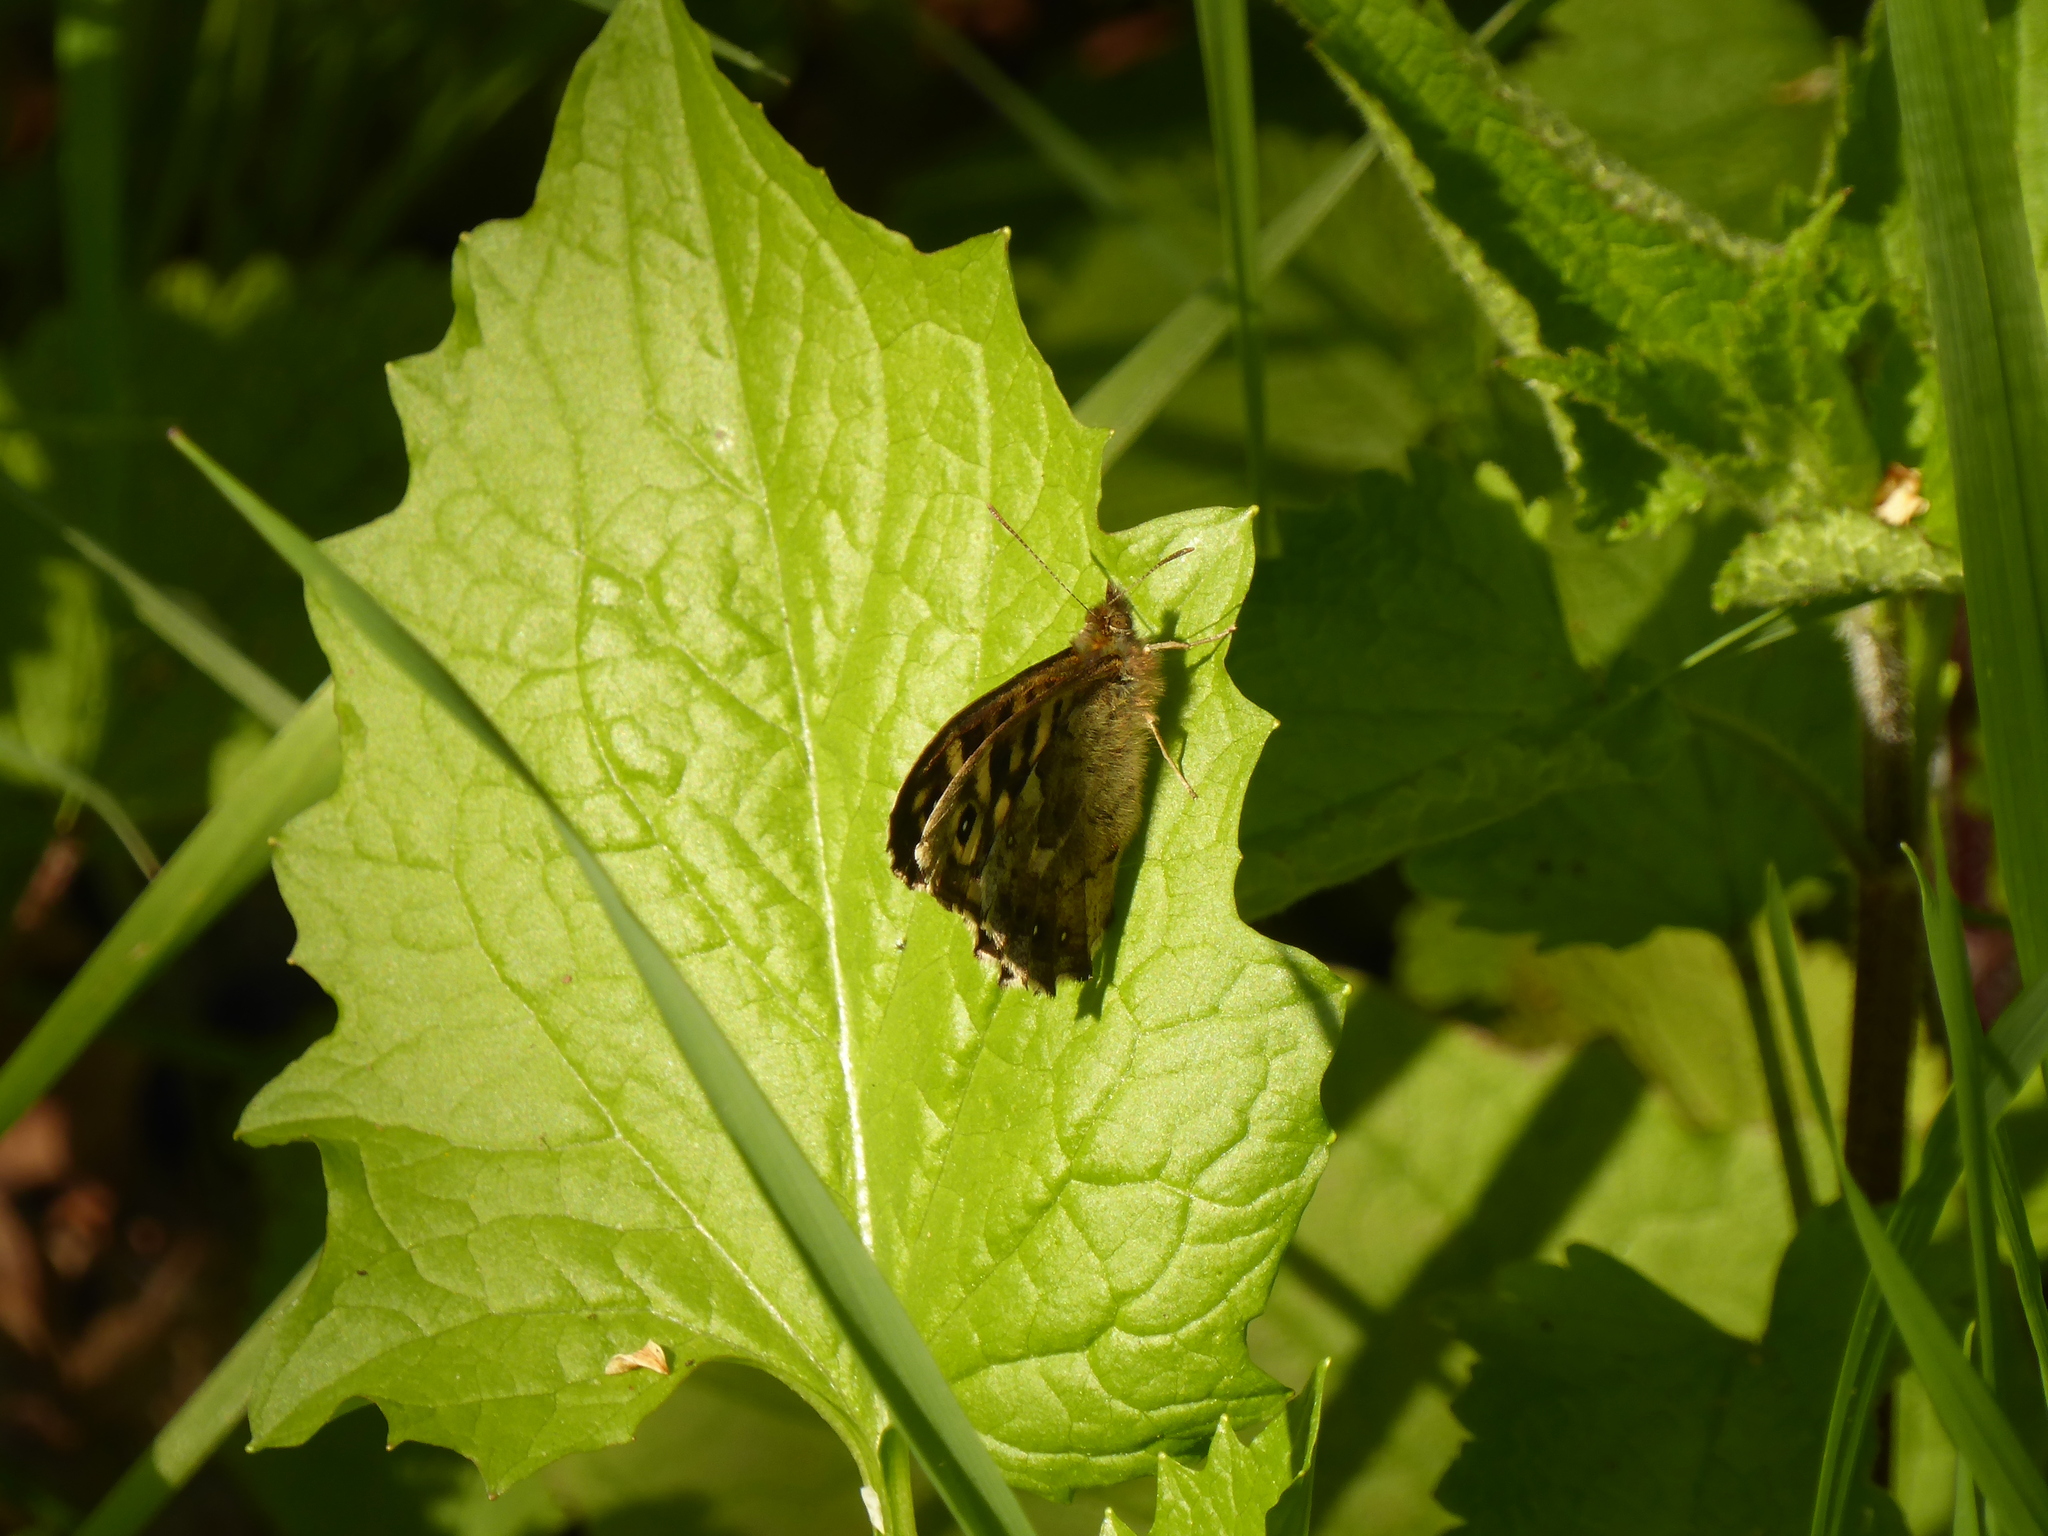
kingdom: Animalia
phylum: Arthropoda
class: Insecta
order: Lepidoptera
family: Nymphalidae
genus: Pararge
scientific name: Pararge aegeria
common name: Speckled wood
